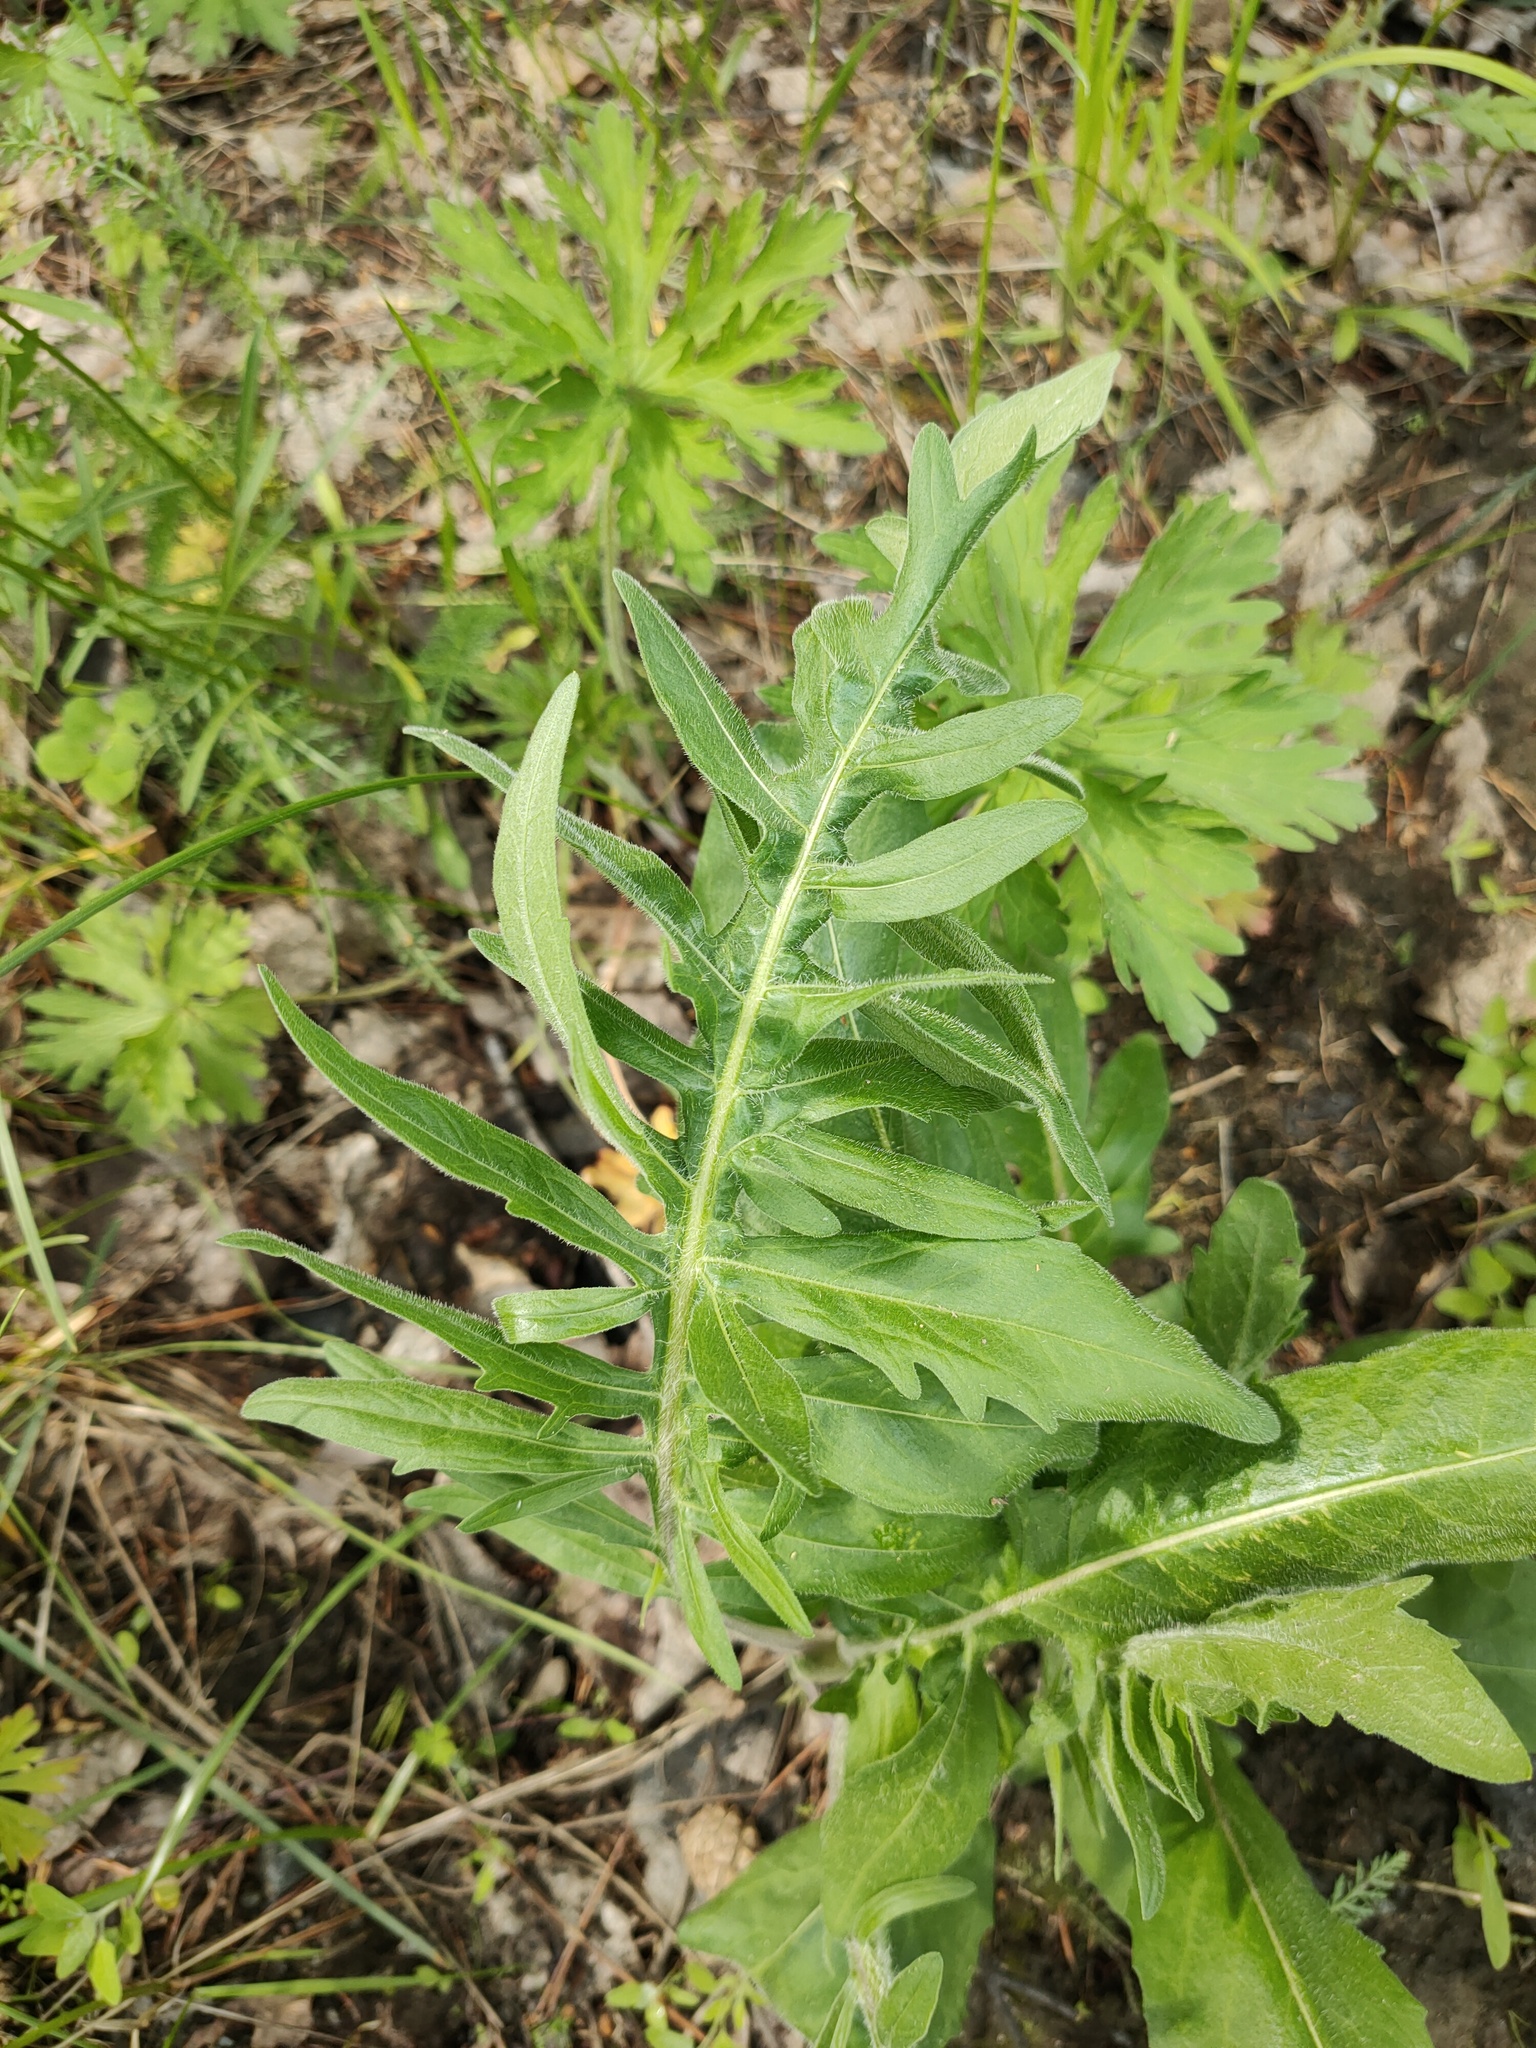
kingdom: Plantae
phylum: Tracheophyta
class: Magnoliopsida
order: Asterales
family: Asteraceae
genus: Centaurea
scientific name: Centaurea scabiosa
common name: Greater knapweed
